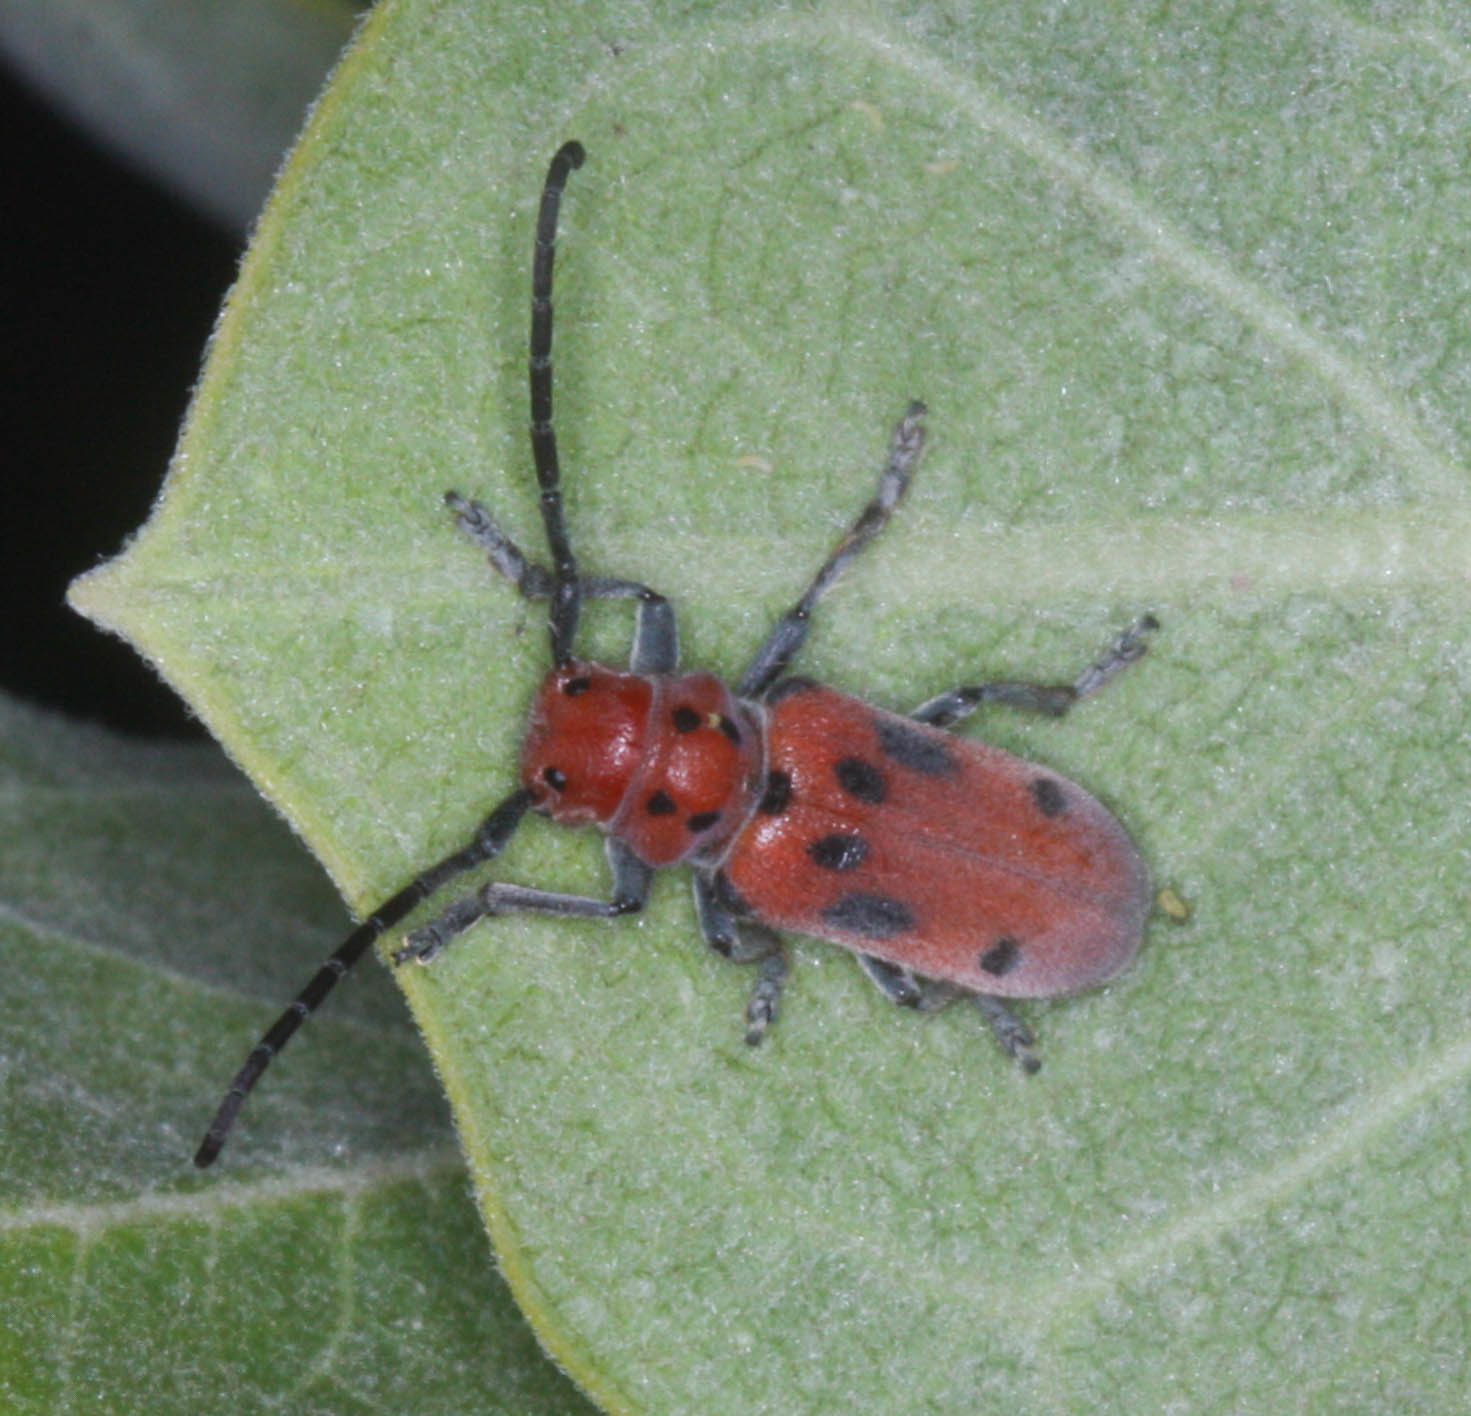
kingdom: Animalia
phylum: Arthropoda
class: Insecta
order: Coleoptera
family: Cerambycidae
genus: Tetraopes
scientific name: Tetraopes tetrophthalmus
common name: Red milkweed beetle
